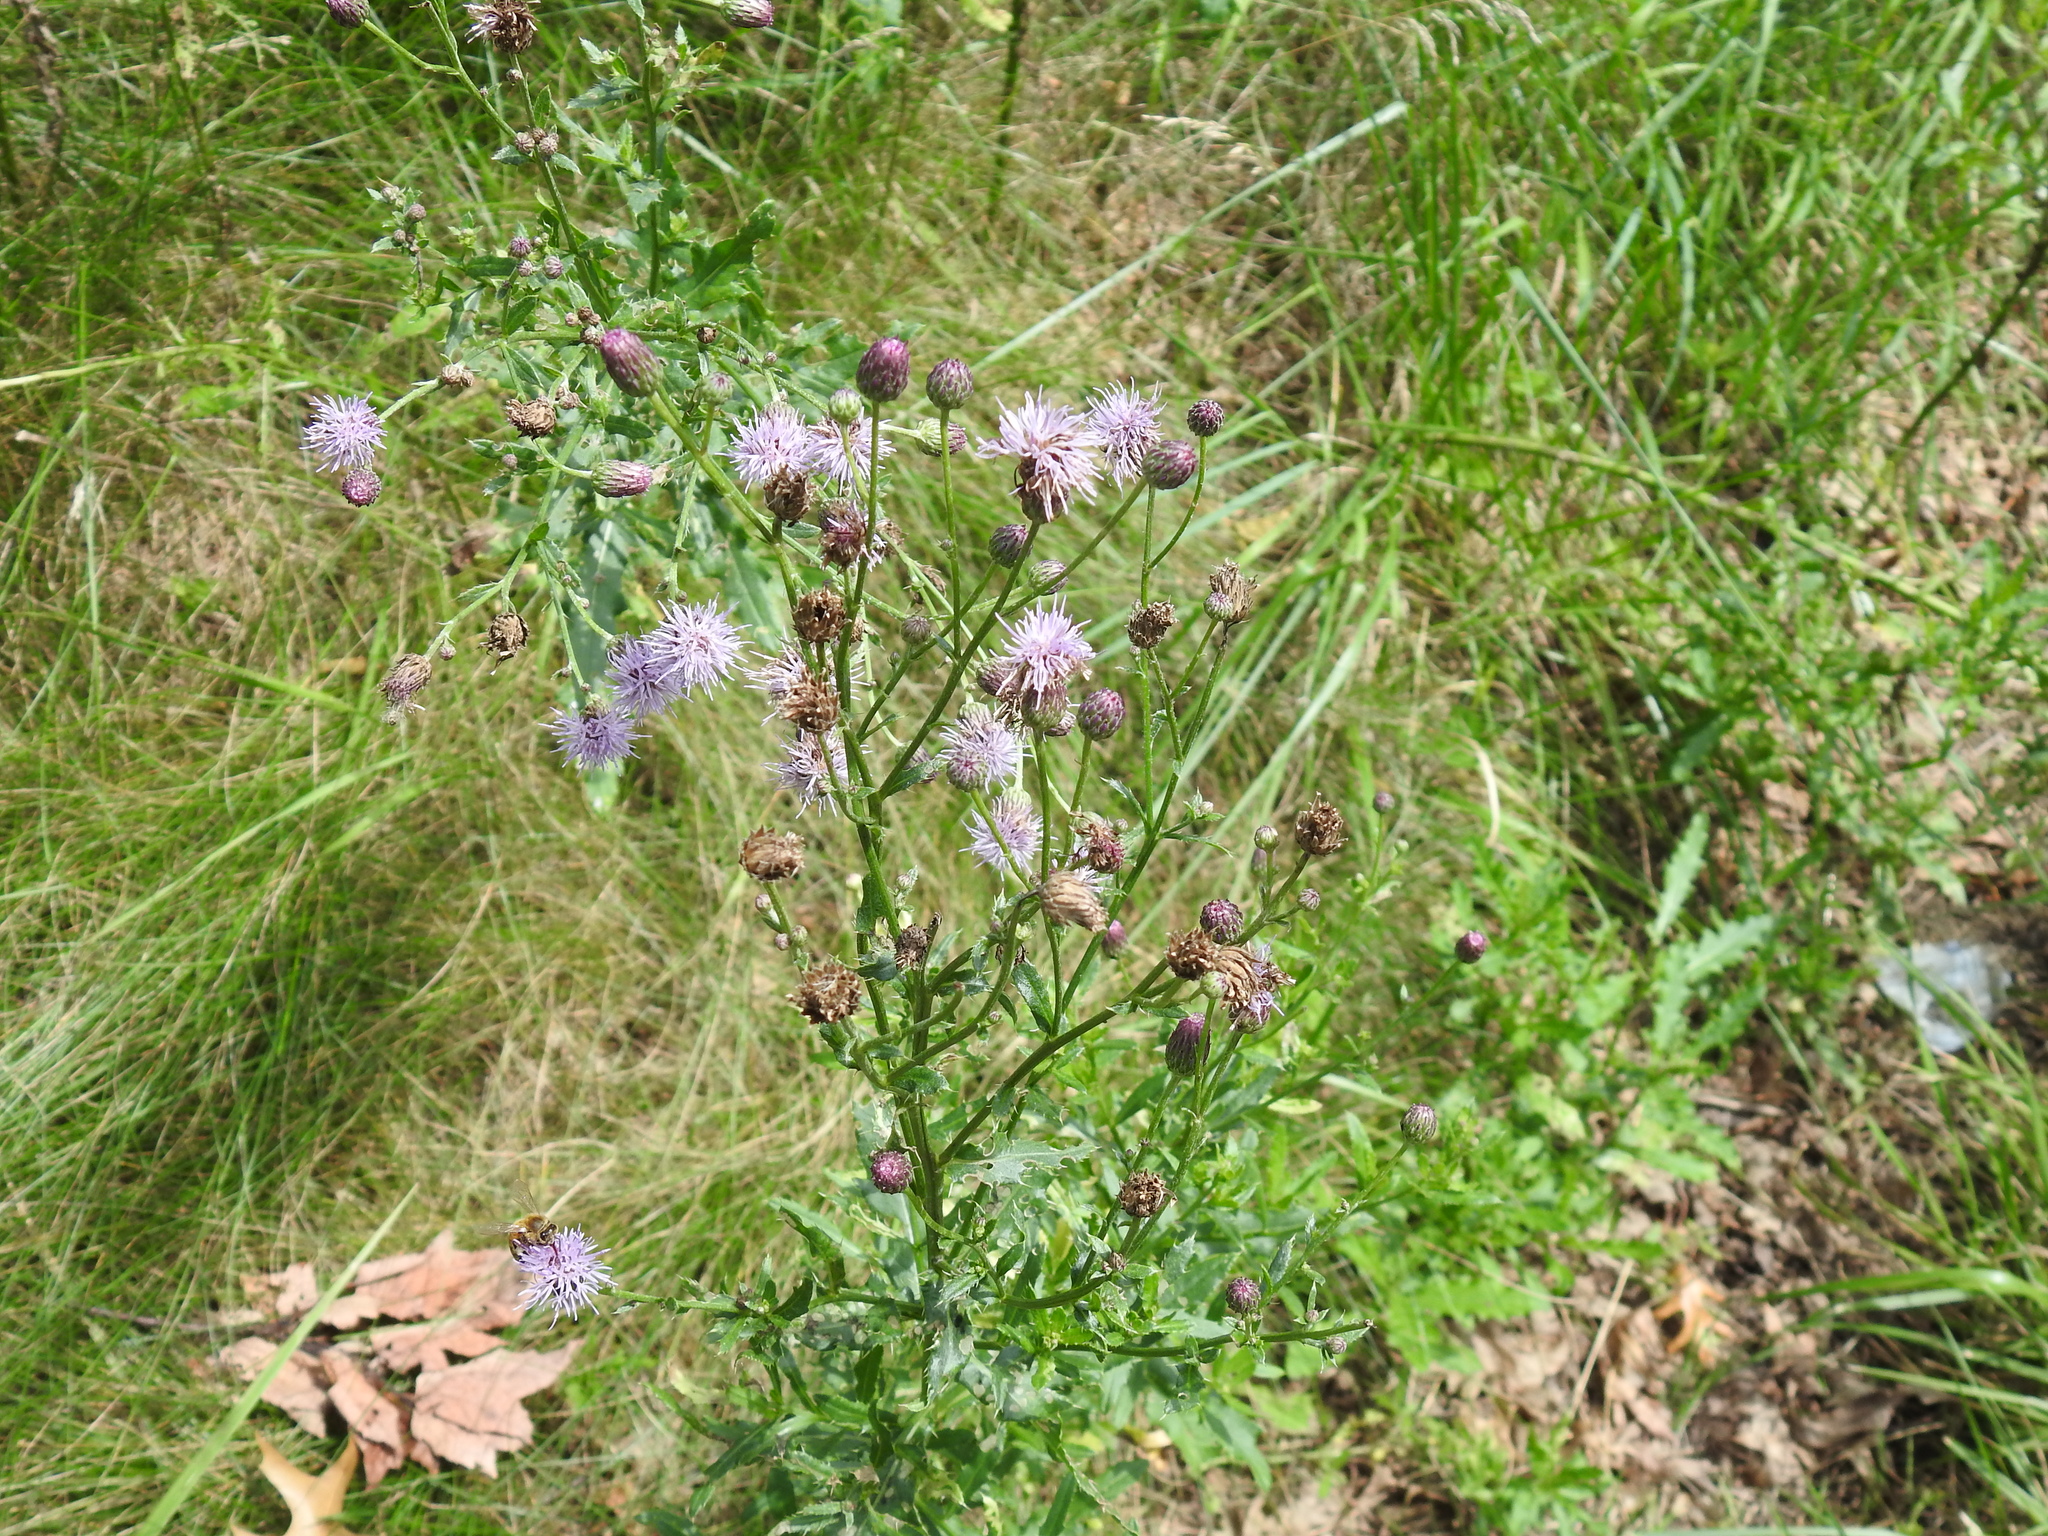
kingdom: Plantae
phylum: Tracheophyta
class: Magnoliopsida
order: Asterales
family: Asteraceae
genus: Cirsium
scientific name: Cirsium arvense
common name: Creeping thistle
